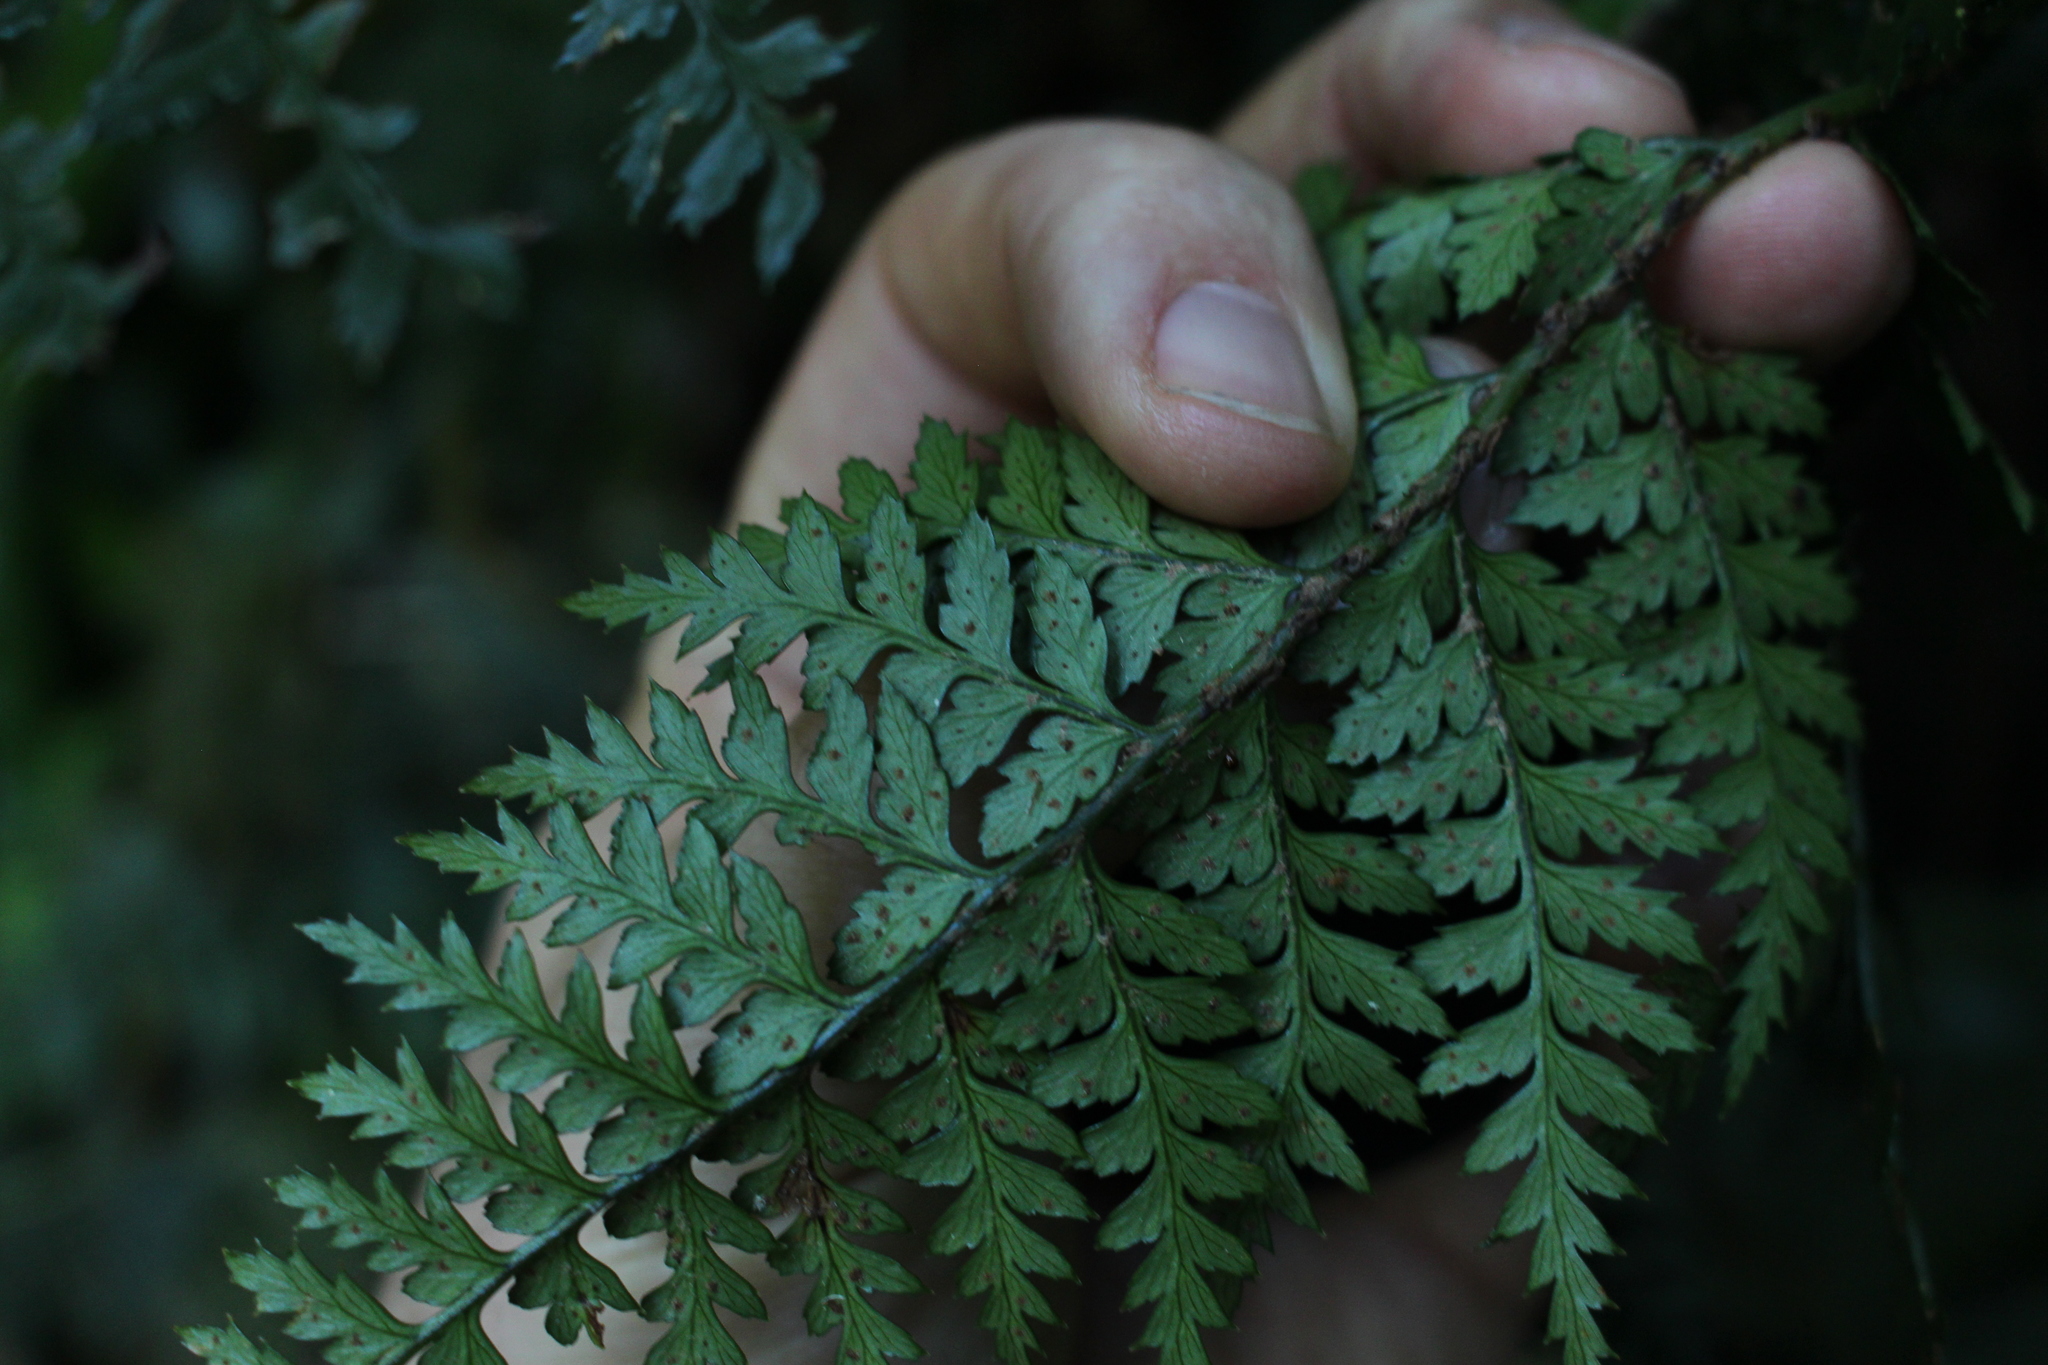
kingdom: Plantae
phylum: Tracheophyta
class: Polypodiopsida
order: Polypodiales
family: Dryopteridaceae
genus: Polystichum
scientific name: Polystichum oculatum
